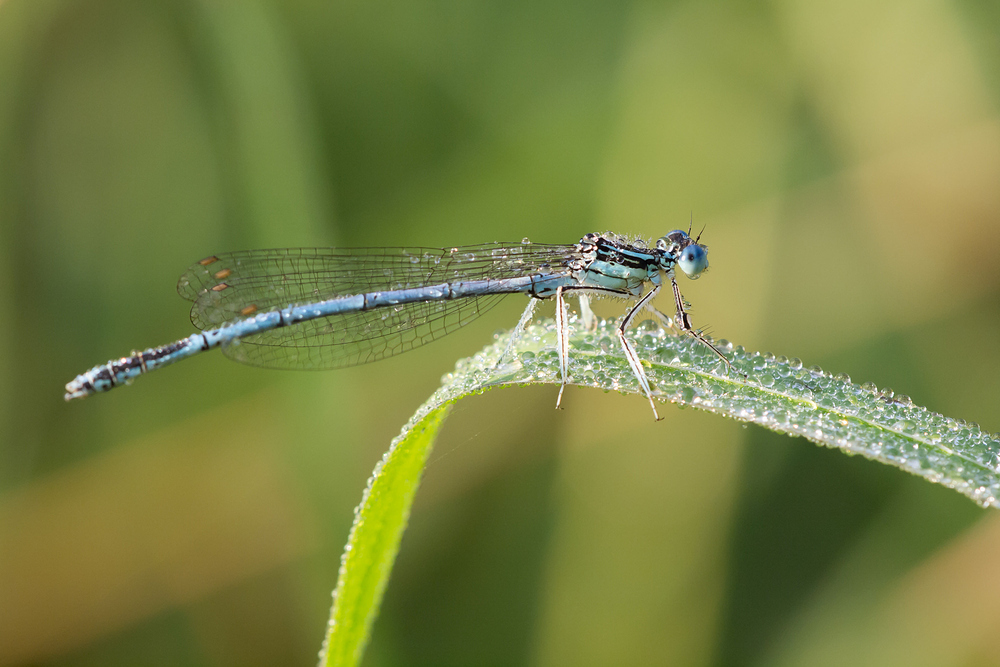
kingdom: Animalia
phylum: Arthropoda
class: Insecta
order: Odonata
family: Platycnemididae
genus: Platycnemis
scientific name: Platycnemis pennipes
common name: White-legged damselfly
